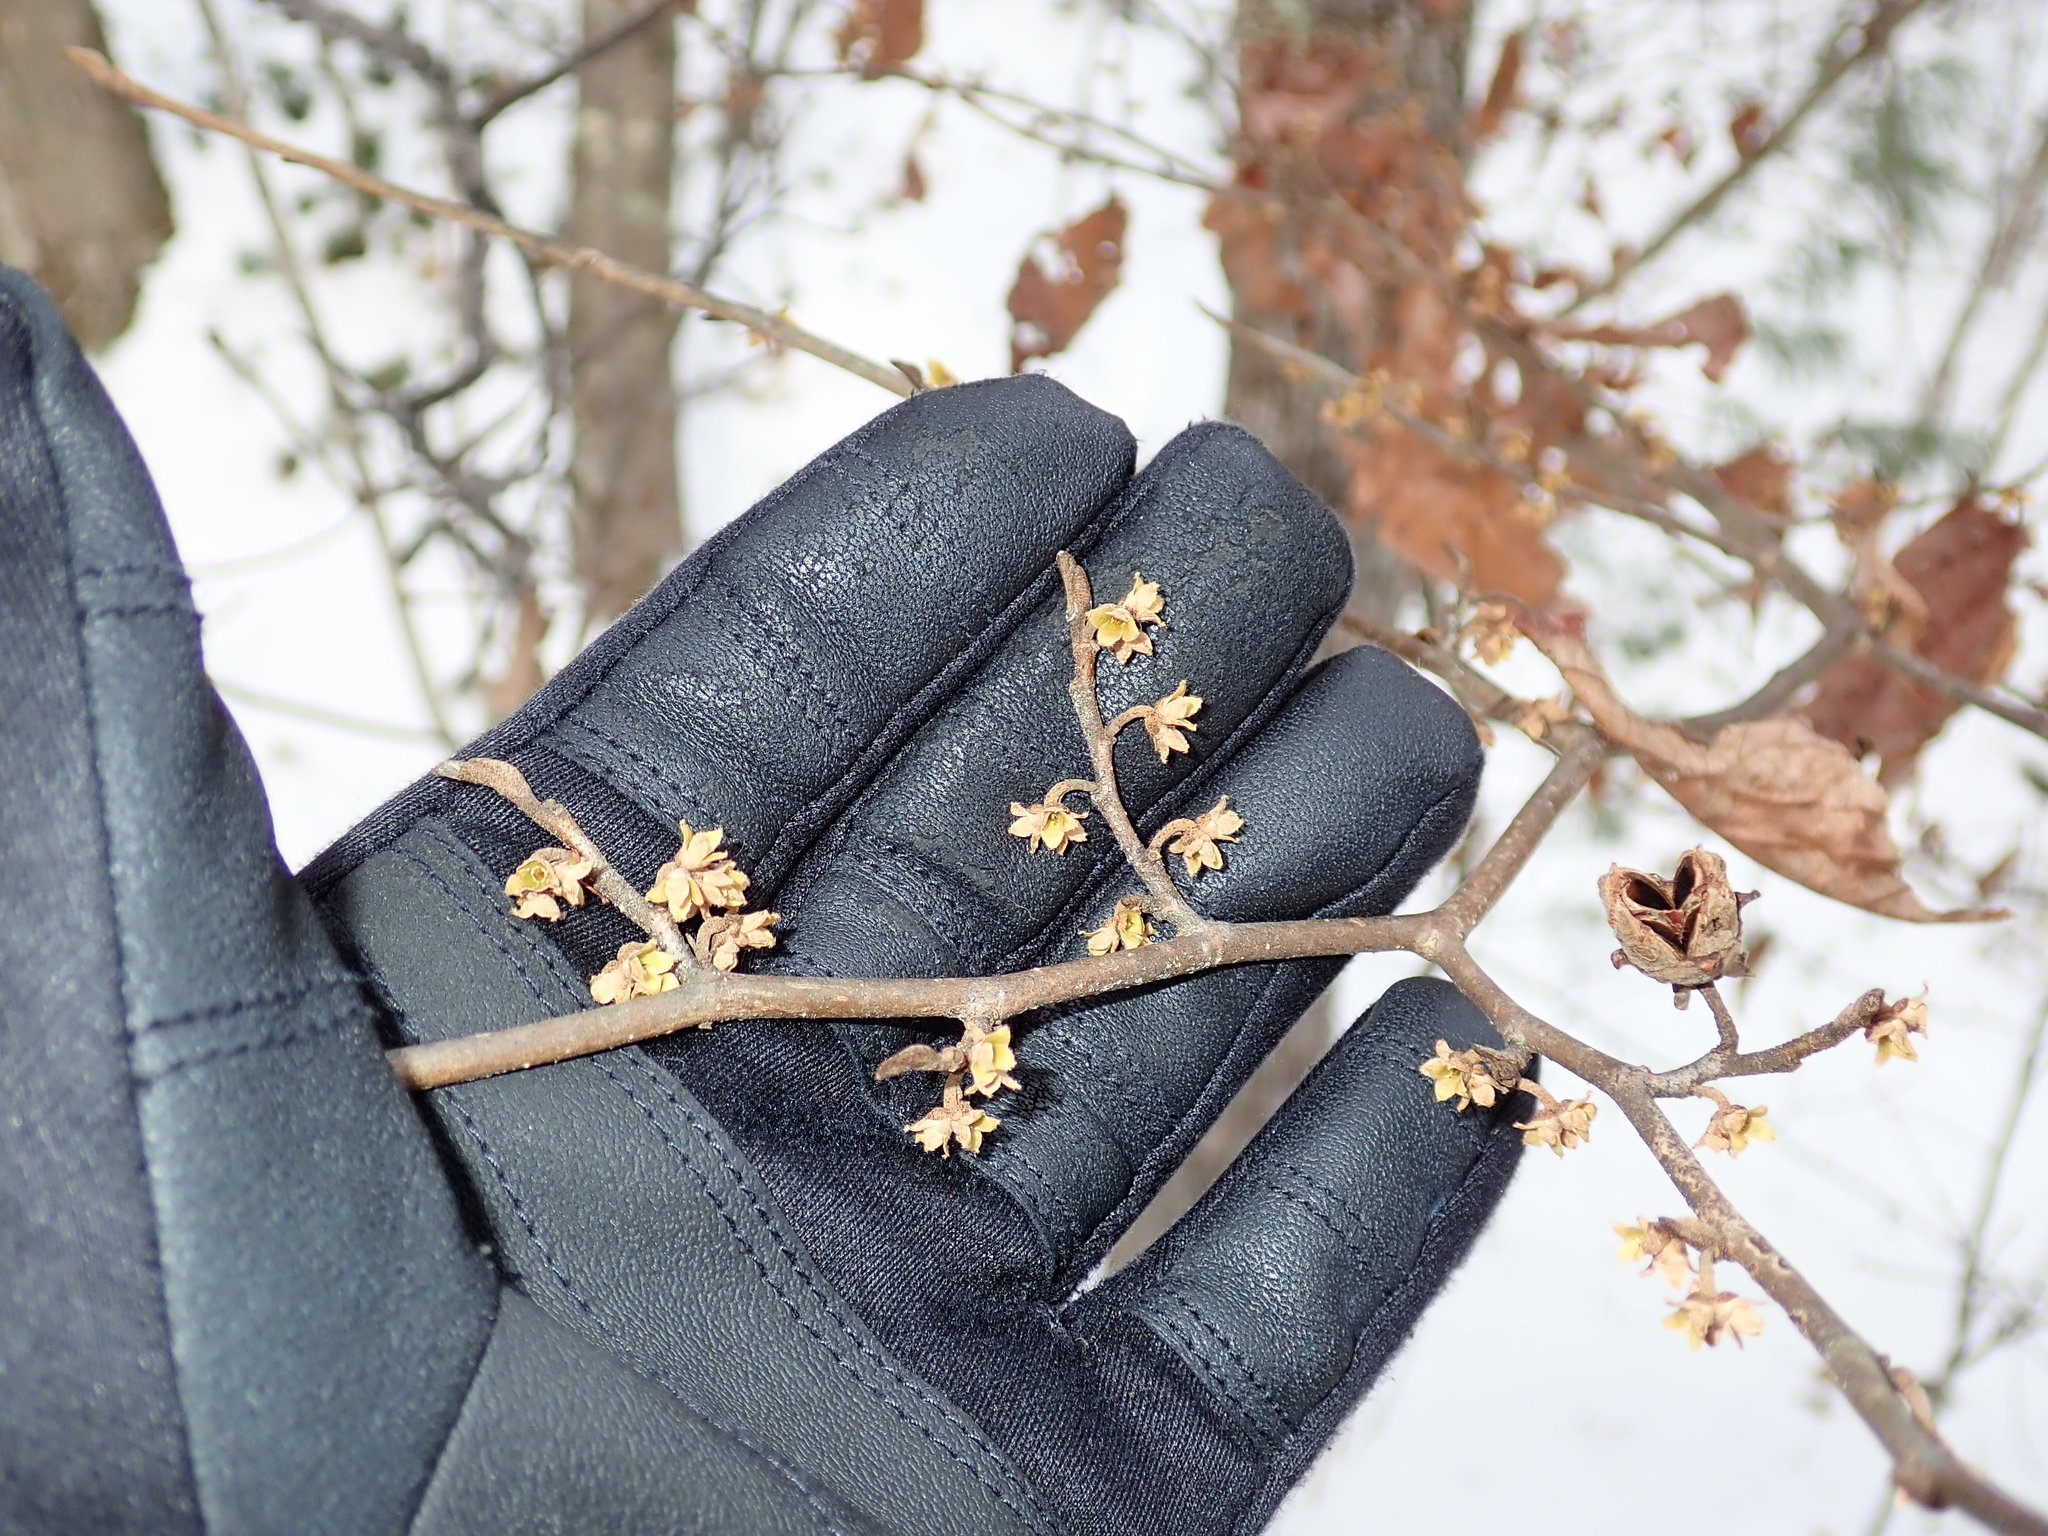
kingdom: Plantae
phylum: Tracheophyta
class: Magnoliopsida
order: Saxifragales
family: Hamamelidaceae
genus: Hamamelis
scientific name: Hamamelis virginiana
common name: Witch-hazel
